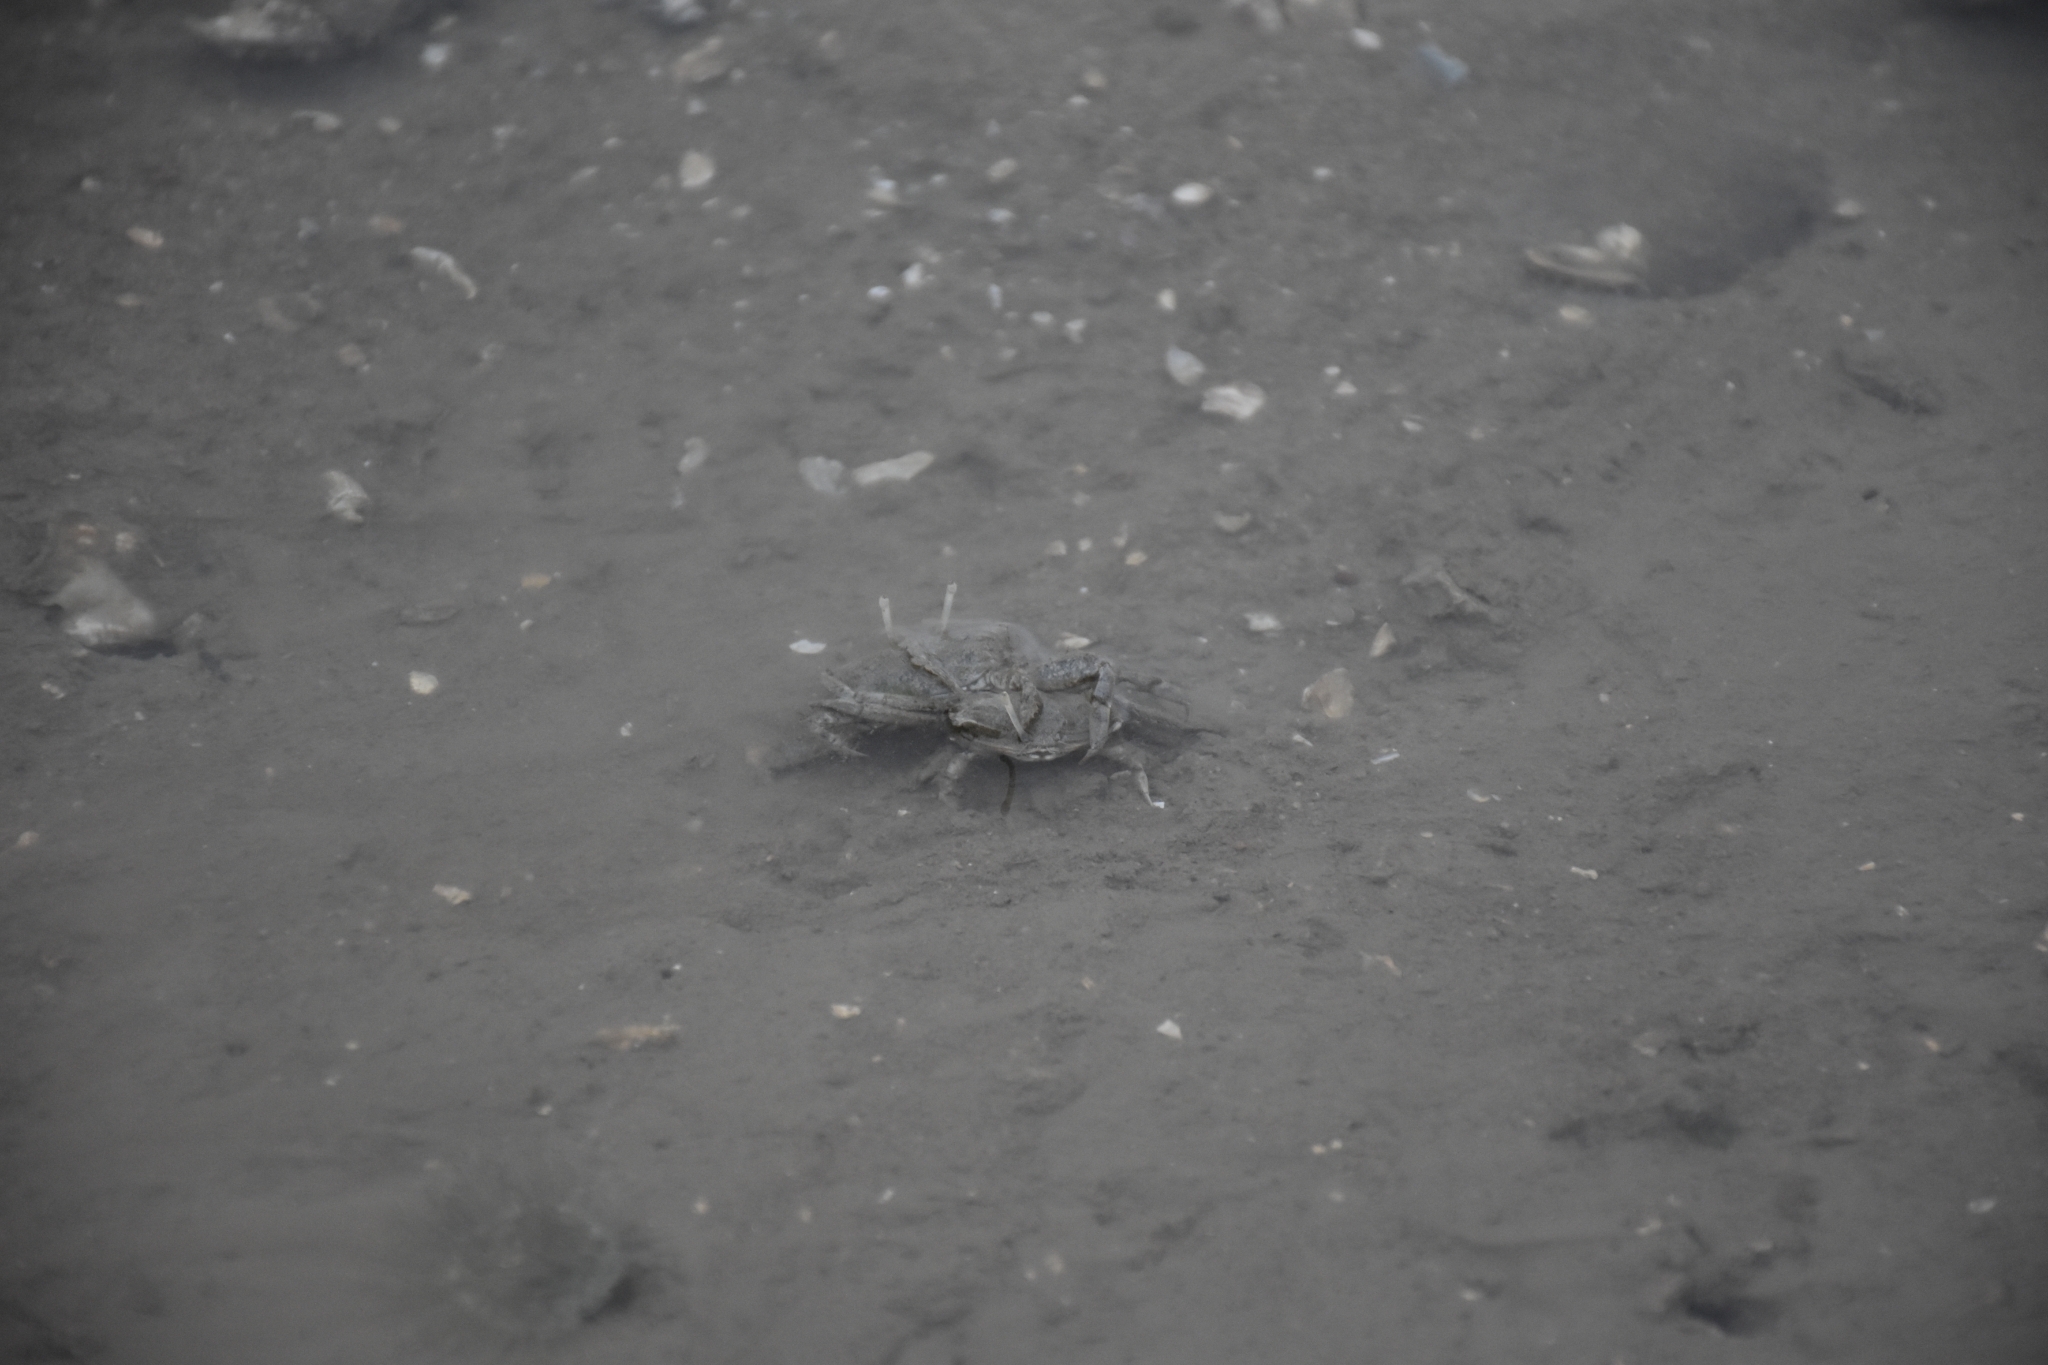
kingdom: Animalia
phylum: Arthropoda
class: Malacostraca
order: Decapoda
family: Macrophthalmidae
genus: Macrophthalmus
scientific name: Macrophthalmus convexus
